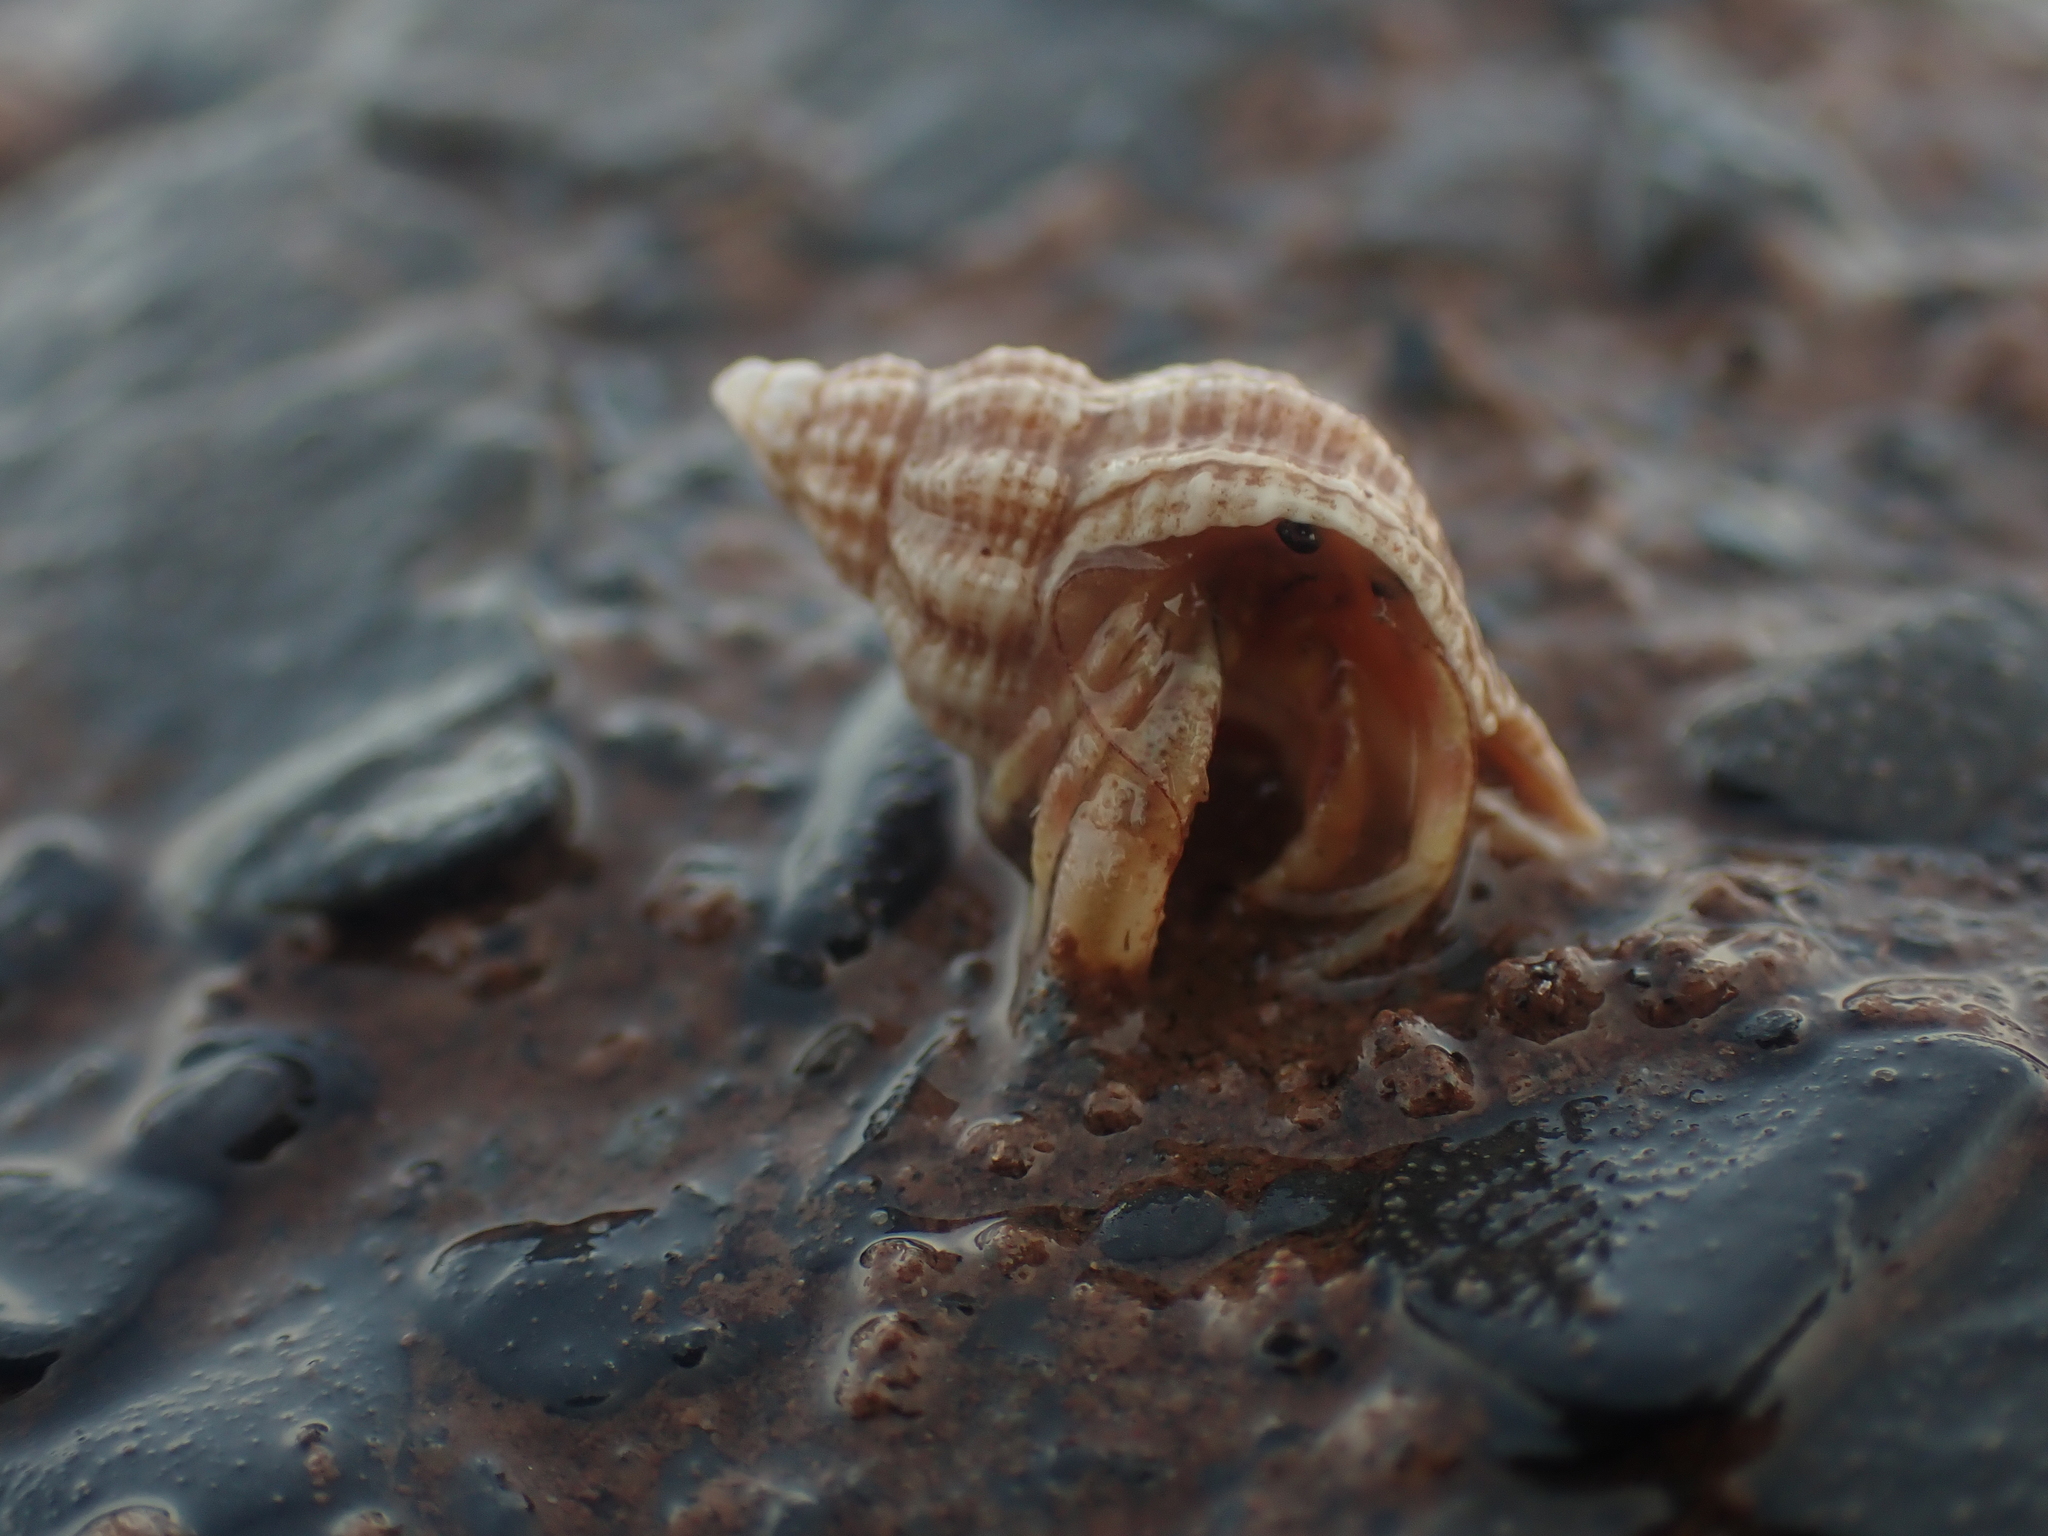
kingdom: Animalia
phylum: Arthropoda
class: Malacostraca
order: Decapoda
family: Paguridae
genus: Pagurus
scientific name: Pagurus longicarpus
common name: Long-armed hermit crab
